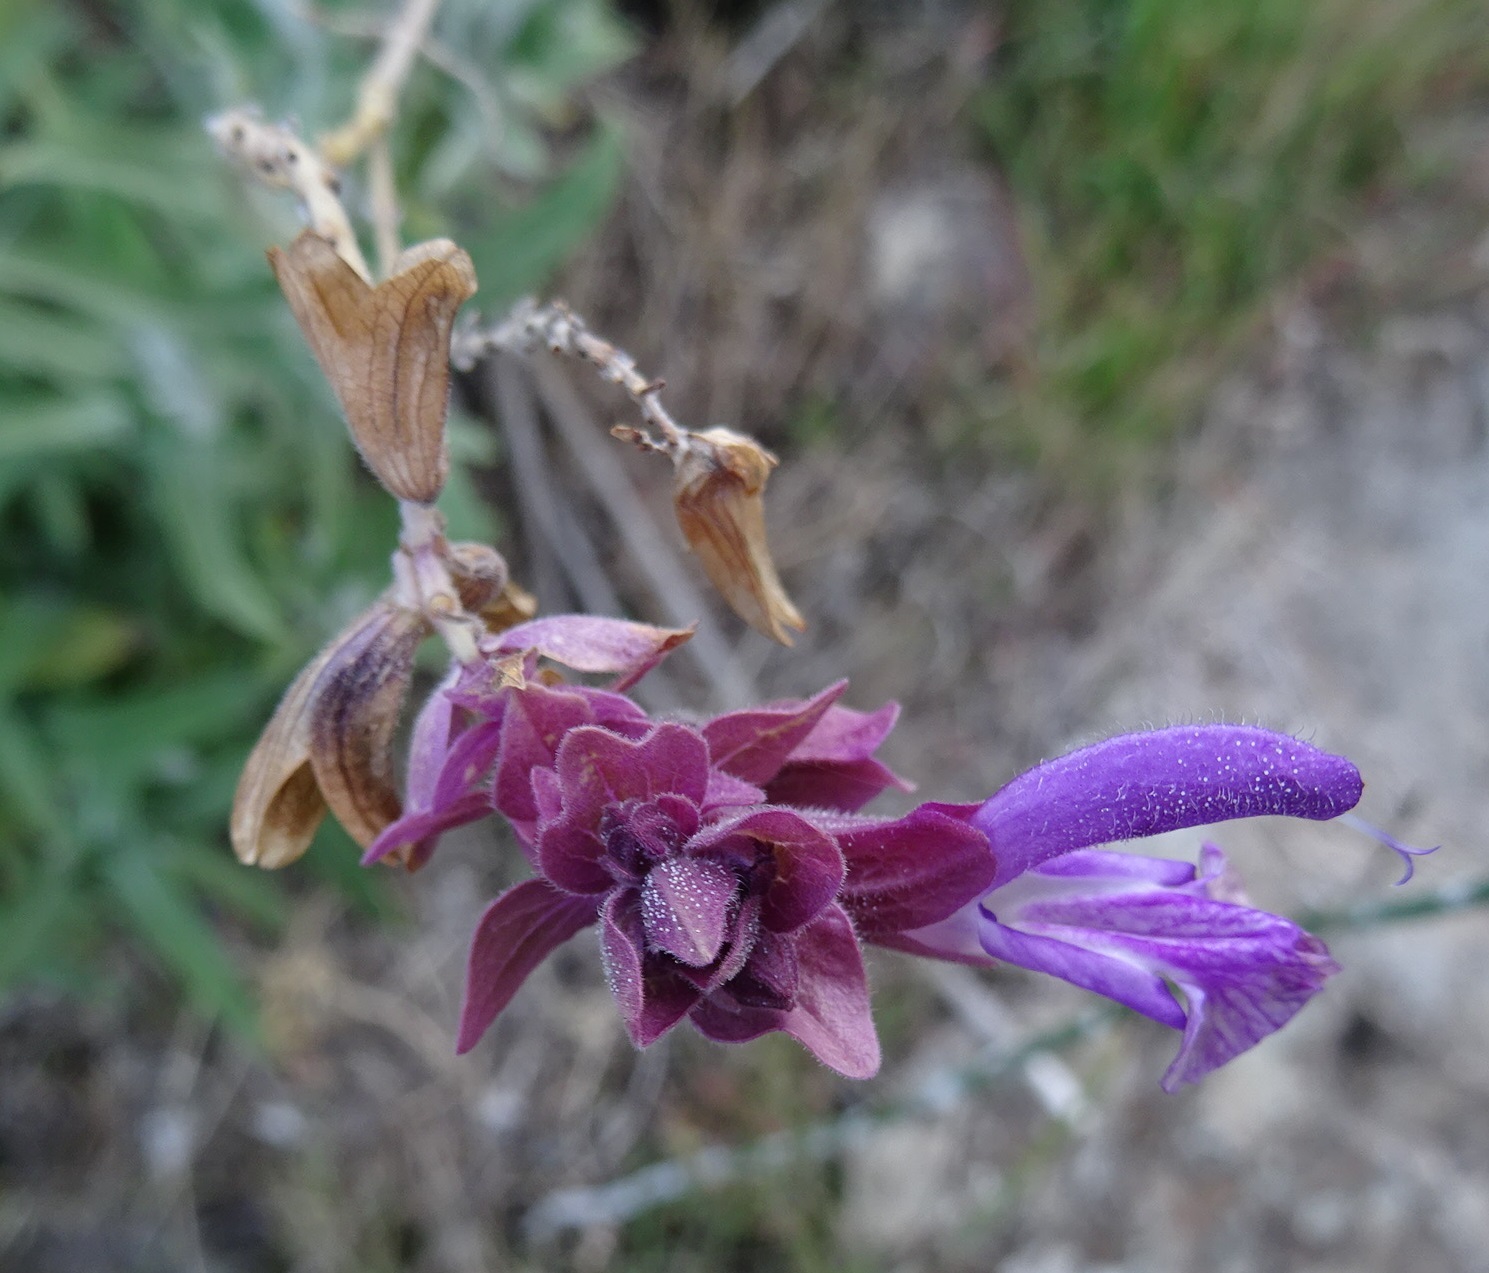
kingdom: Plantae
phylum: Tracheophyta
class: Magnoliopsida
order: Lamiales
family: Lamiaceae
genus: Salvia
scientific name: Salvia canariensis
